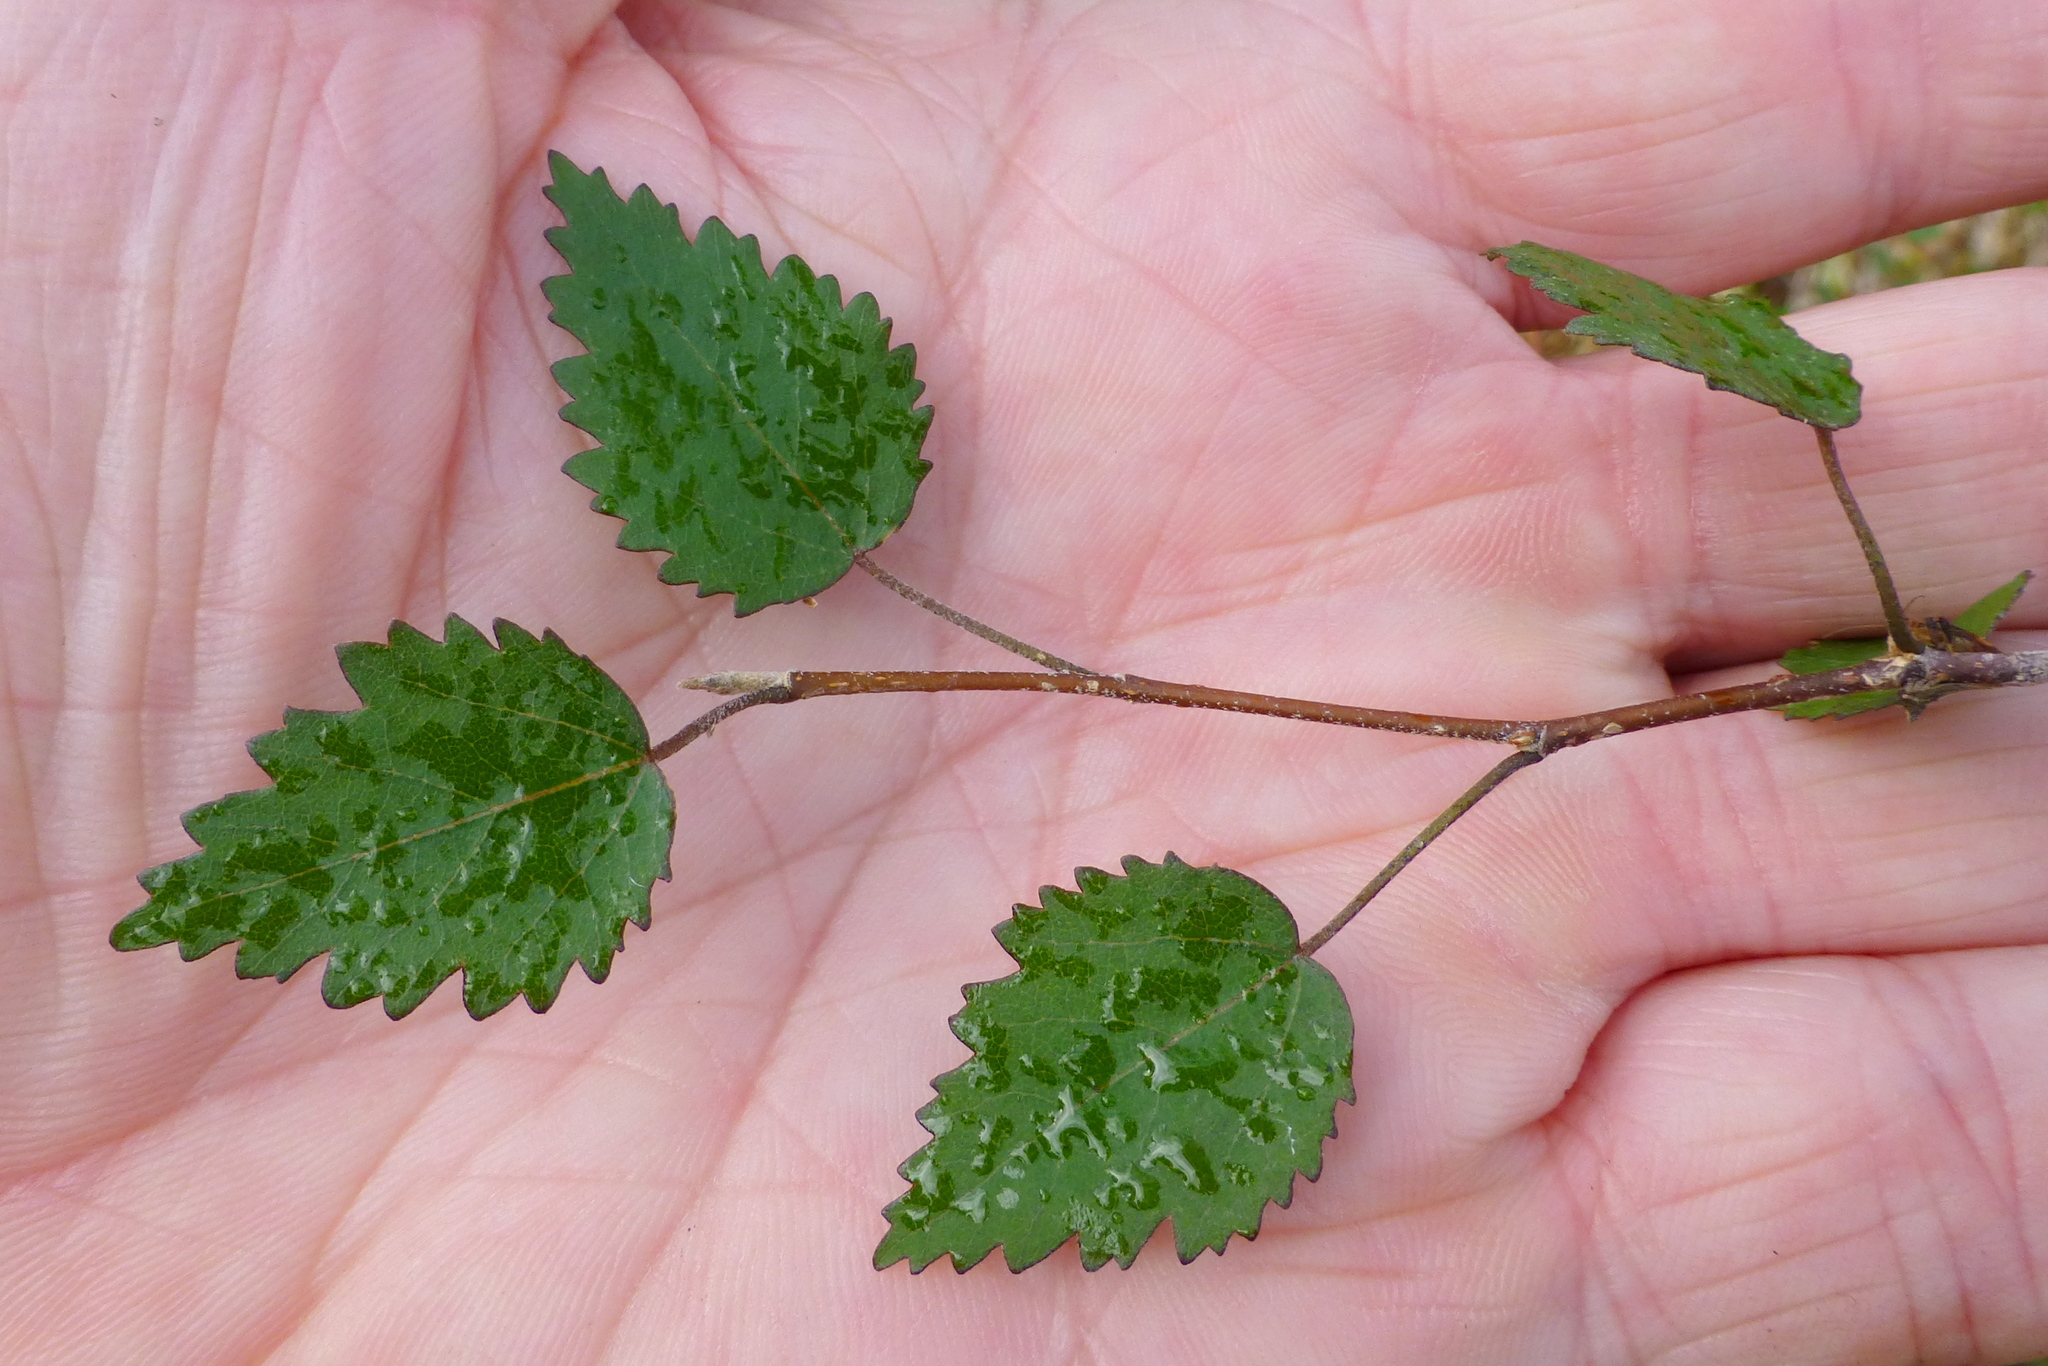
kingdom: Plantae
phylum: Tracheophyta
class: Magnoliopsida
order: Malvales
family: Malvaceae
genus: Plagianthus
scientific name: Plagianthus regius
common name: Manatu
